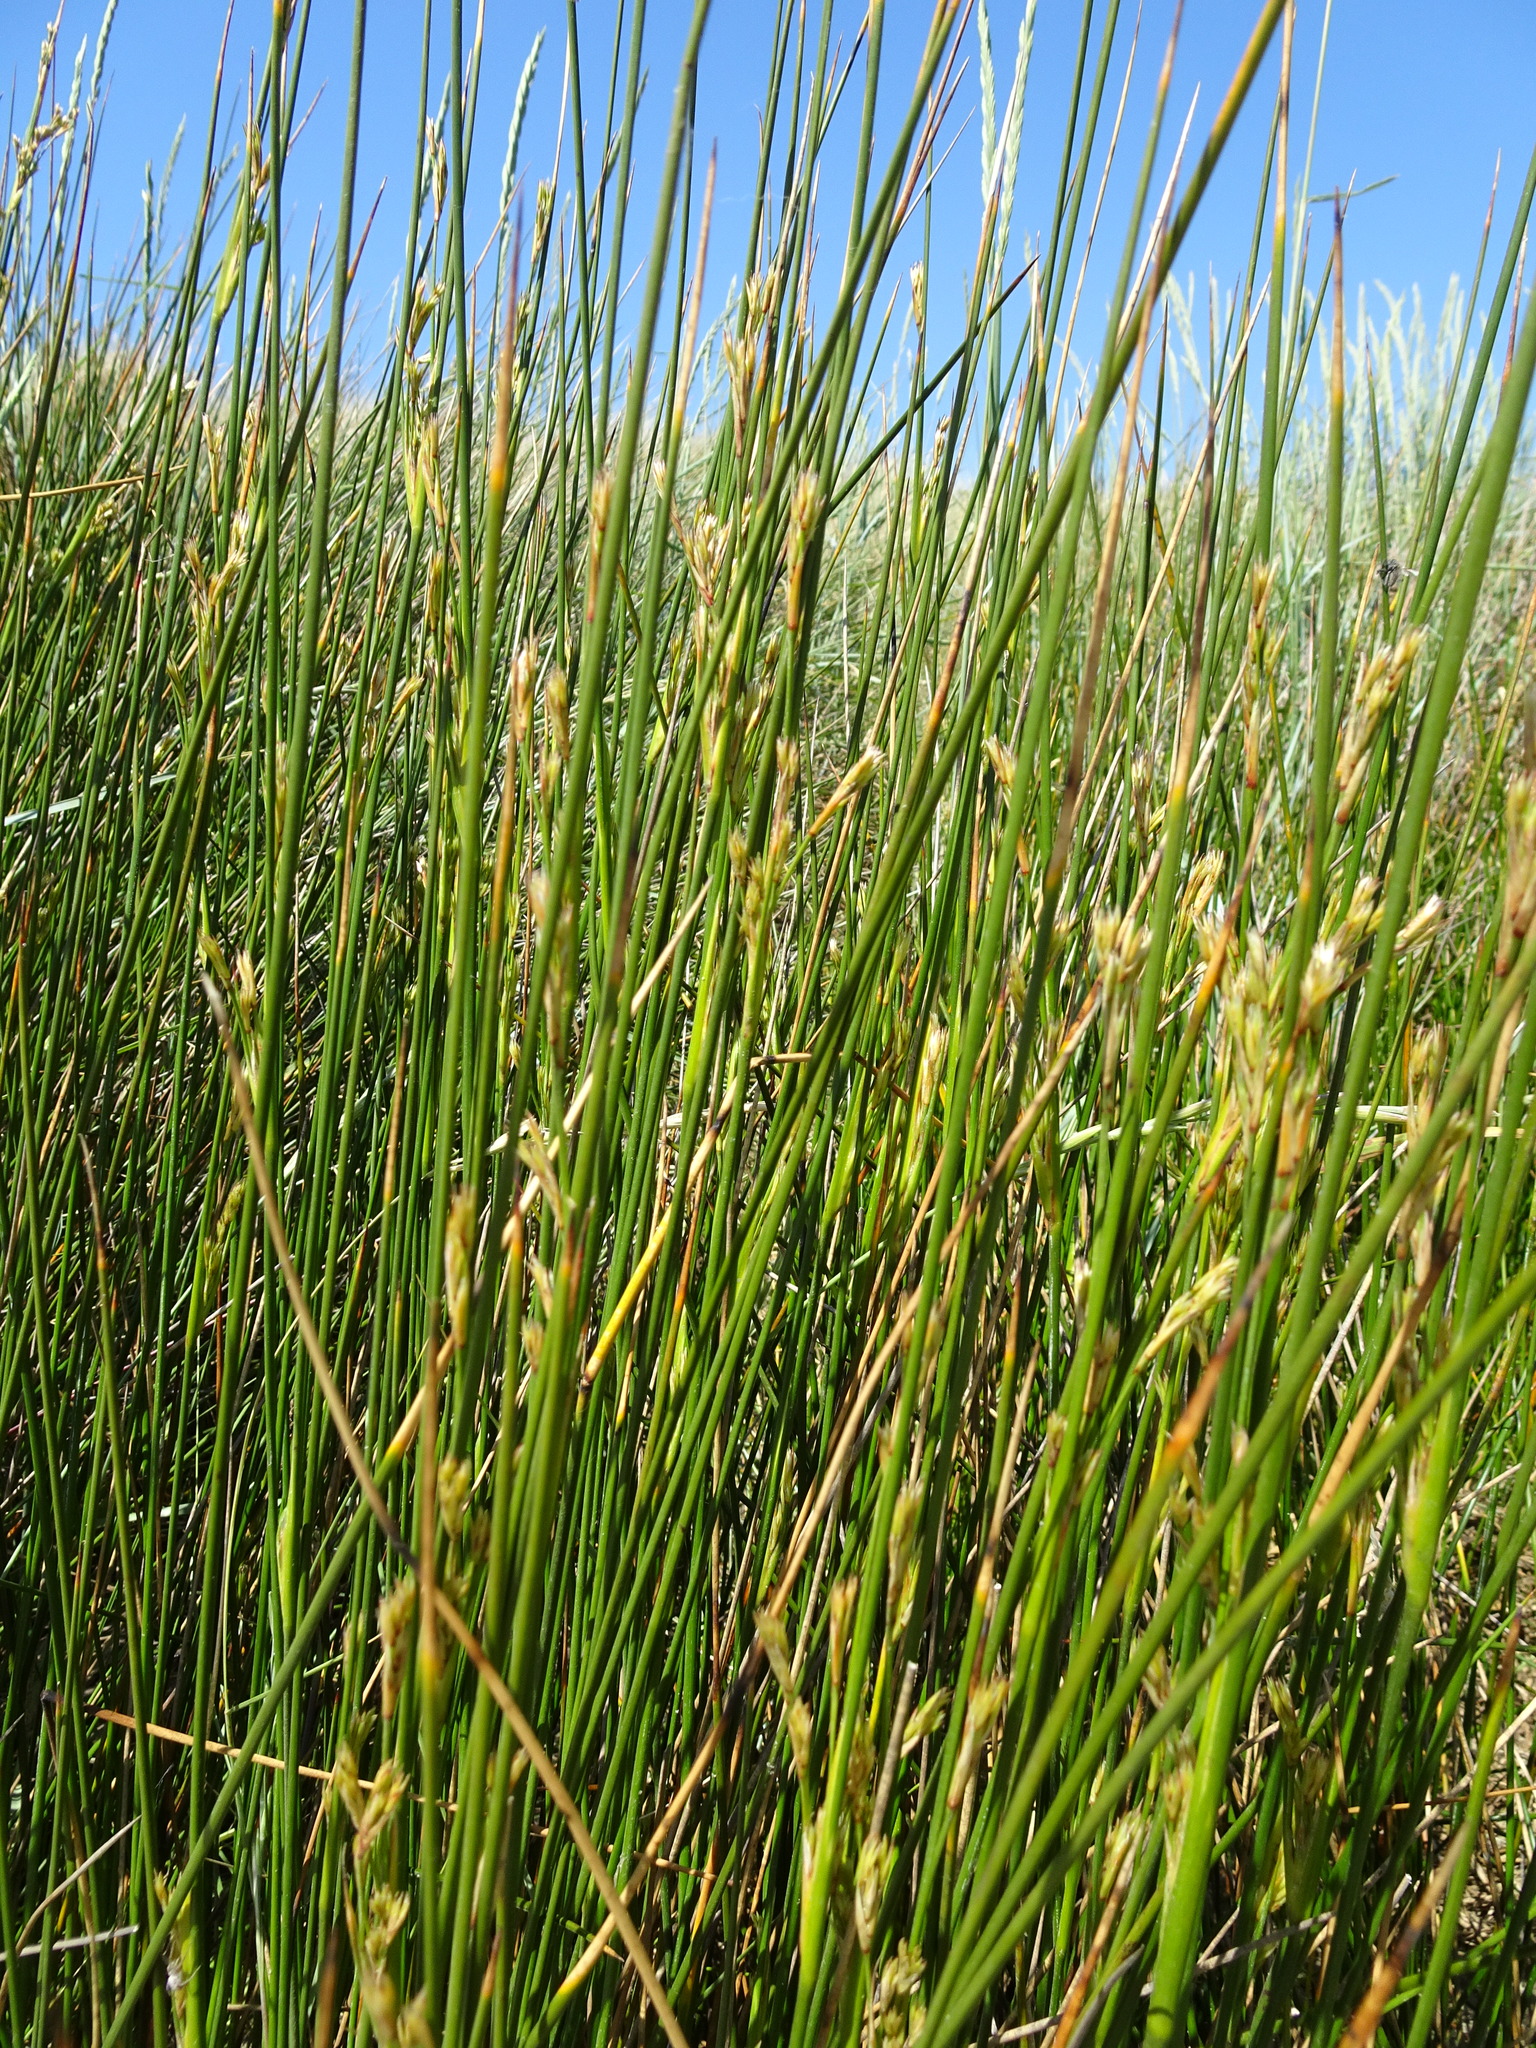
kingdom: Plantae
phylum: Tracheophyta
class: Liliopsida
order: Poales
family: Juncaceae
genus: Juncus
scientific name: Juncus maritimus
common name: Sea rush
